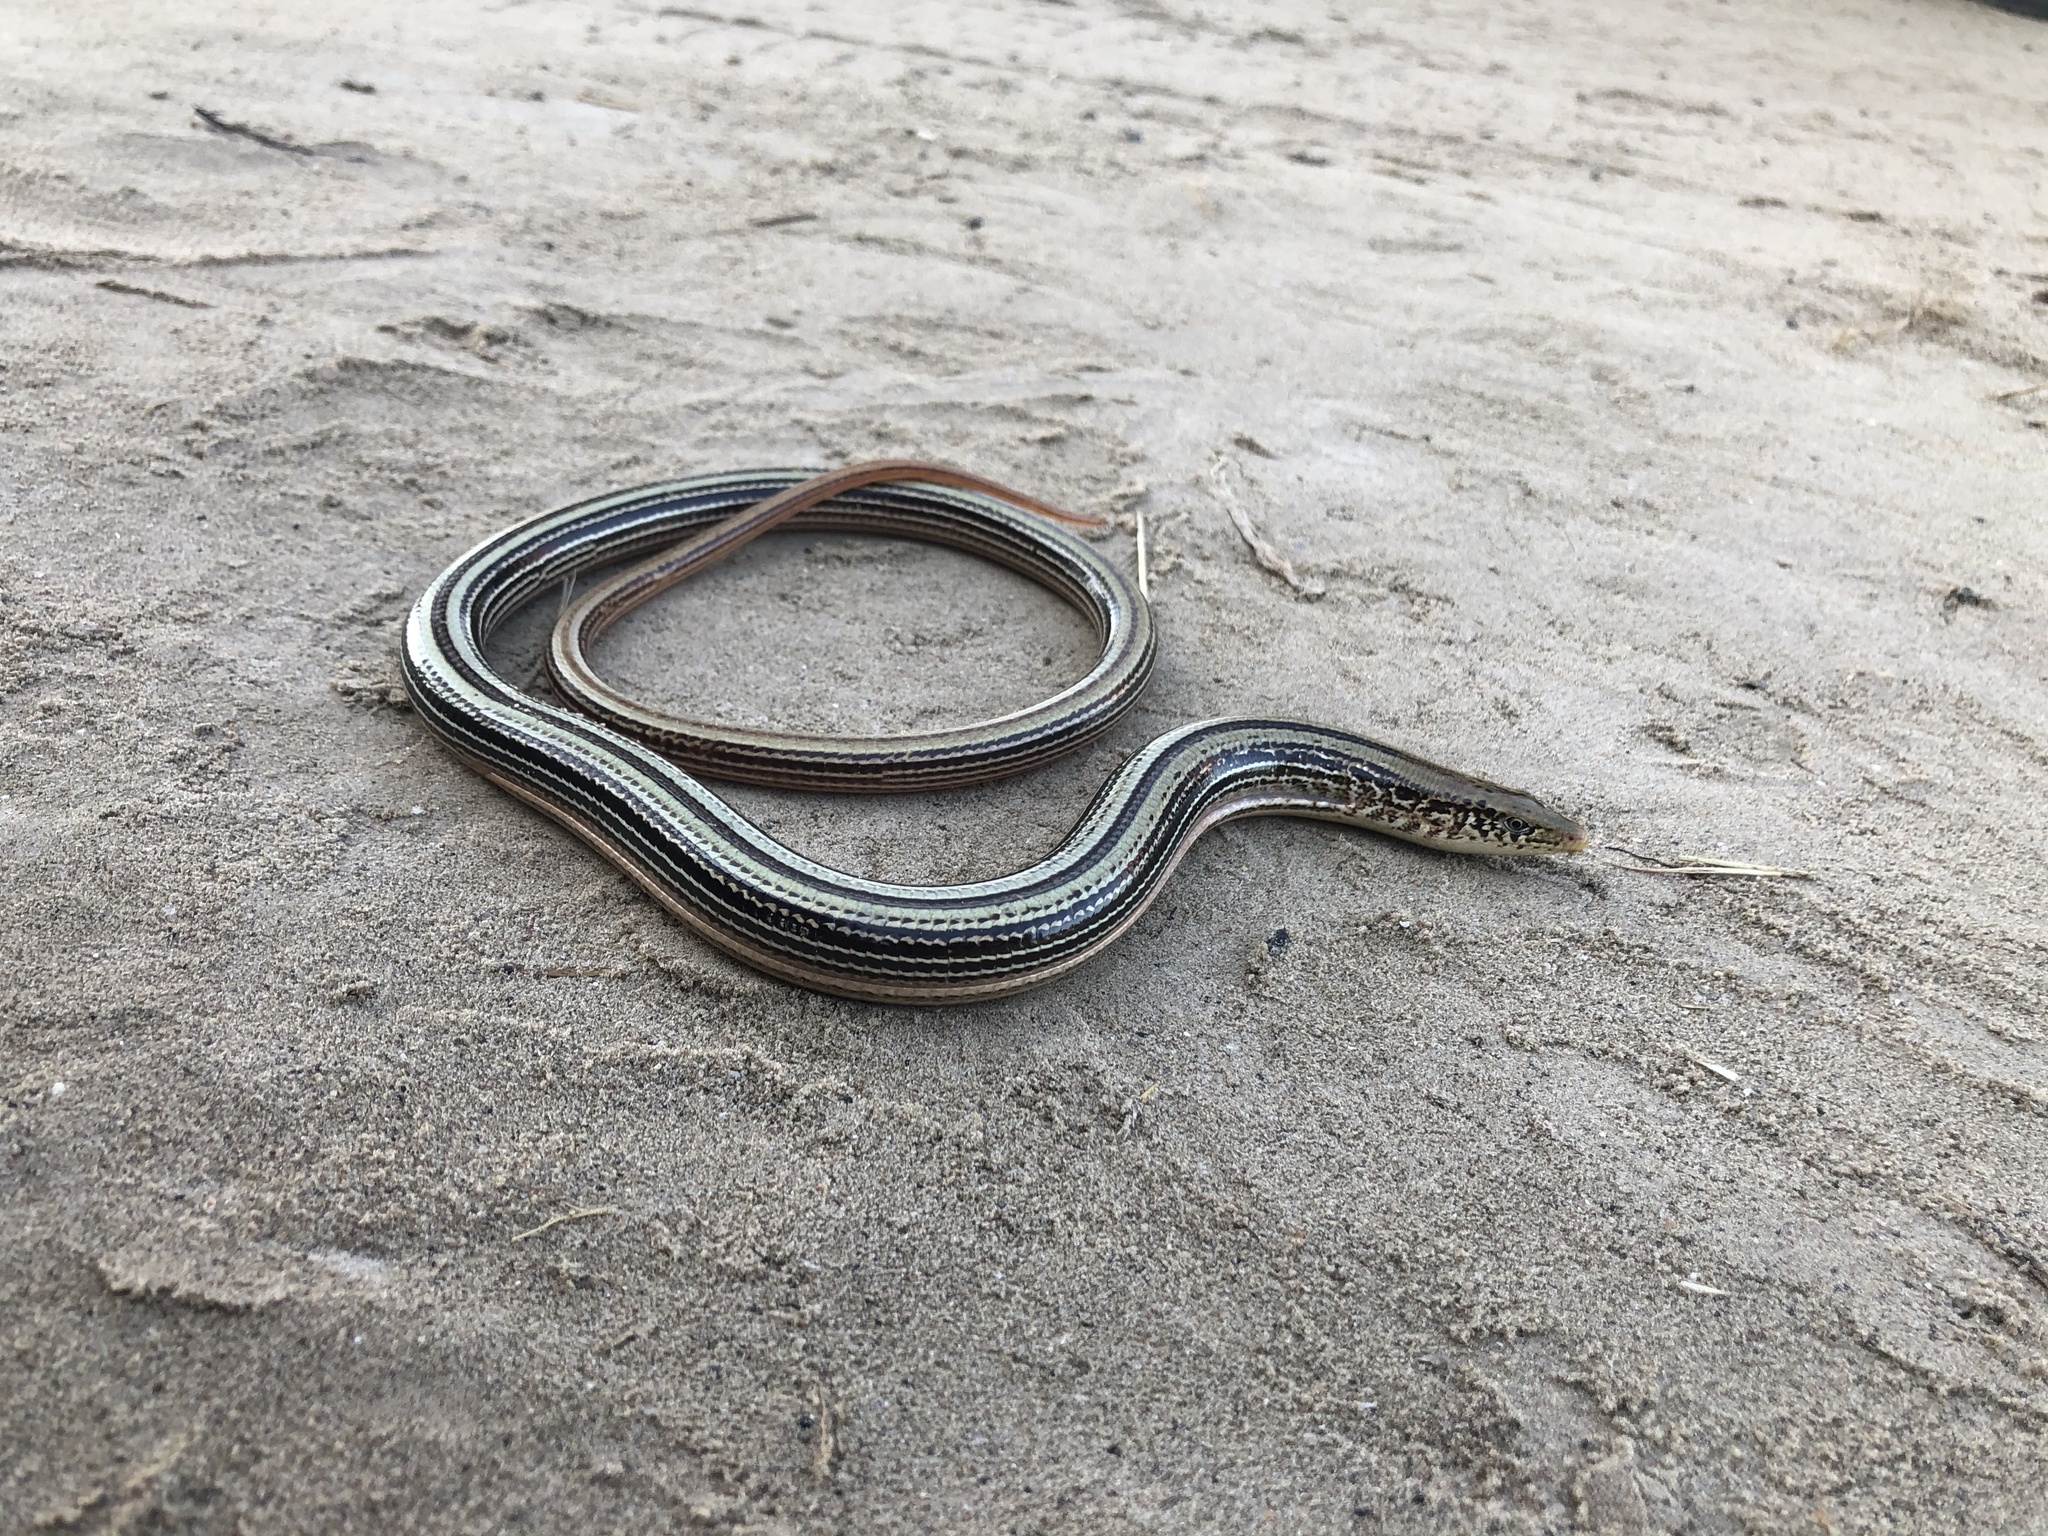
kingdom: Animalia
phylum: Chordata
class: Squamata
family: Anguidae
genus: Ophisaurus
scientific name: Ophisaurus attenuatus
